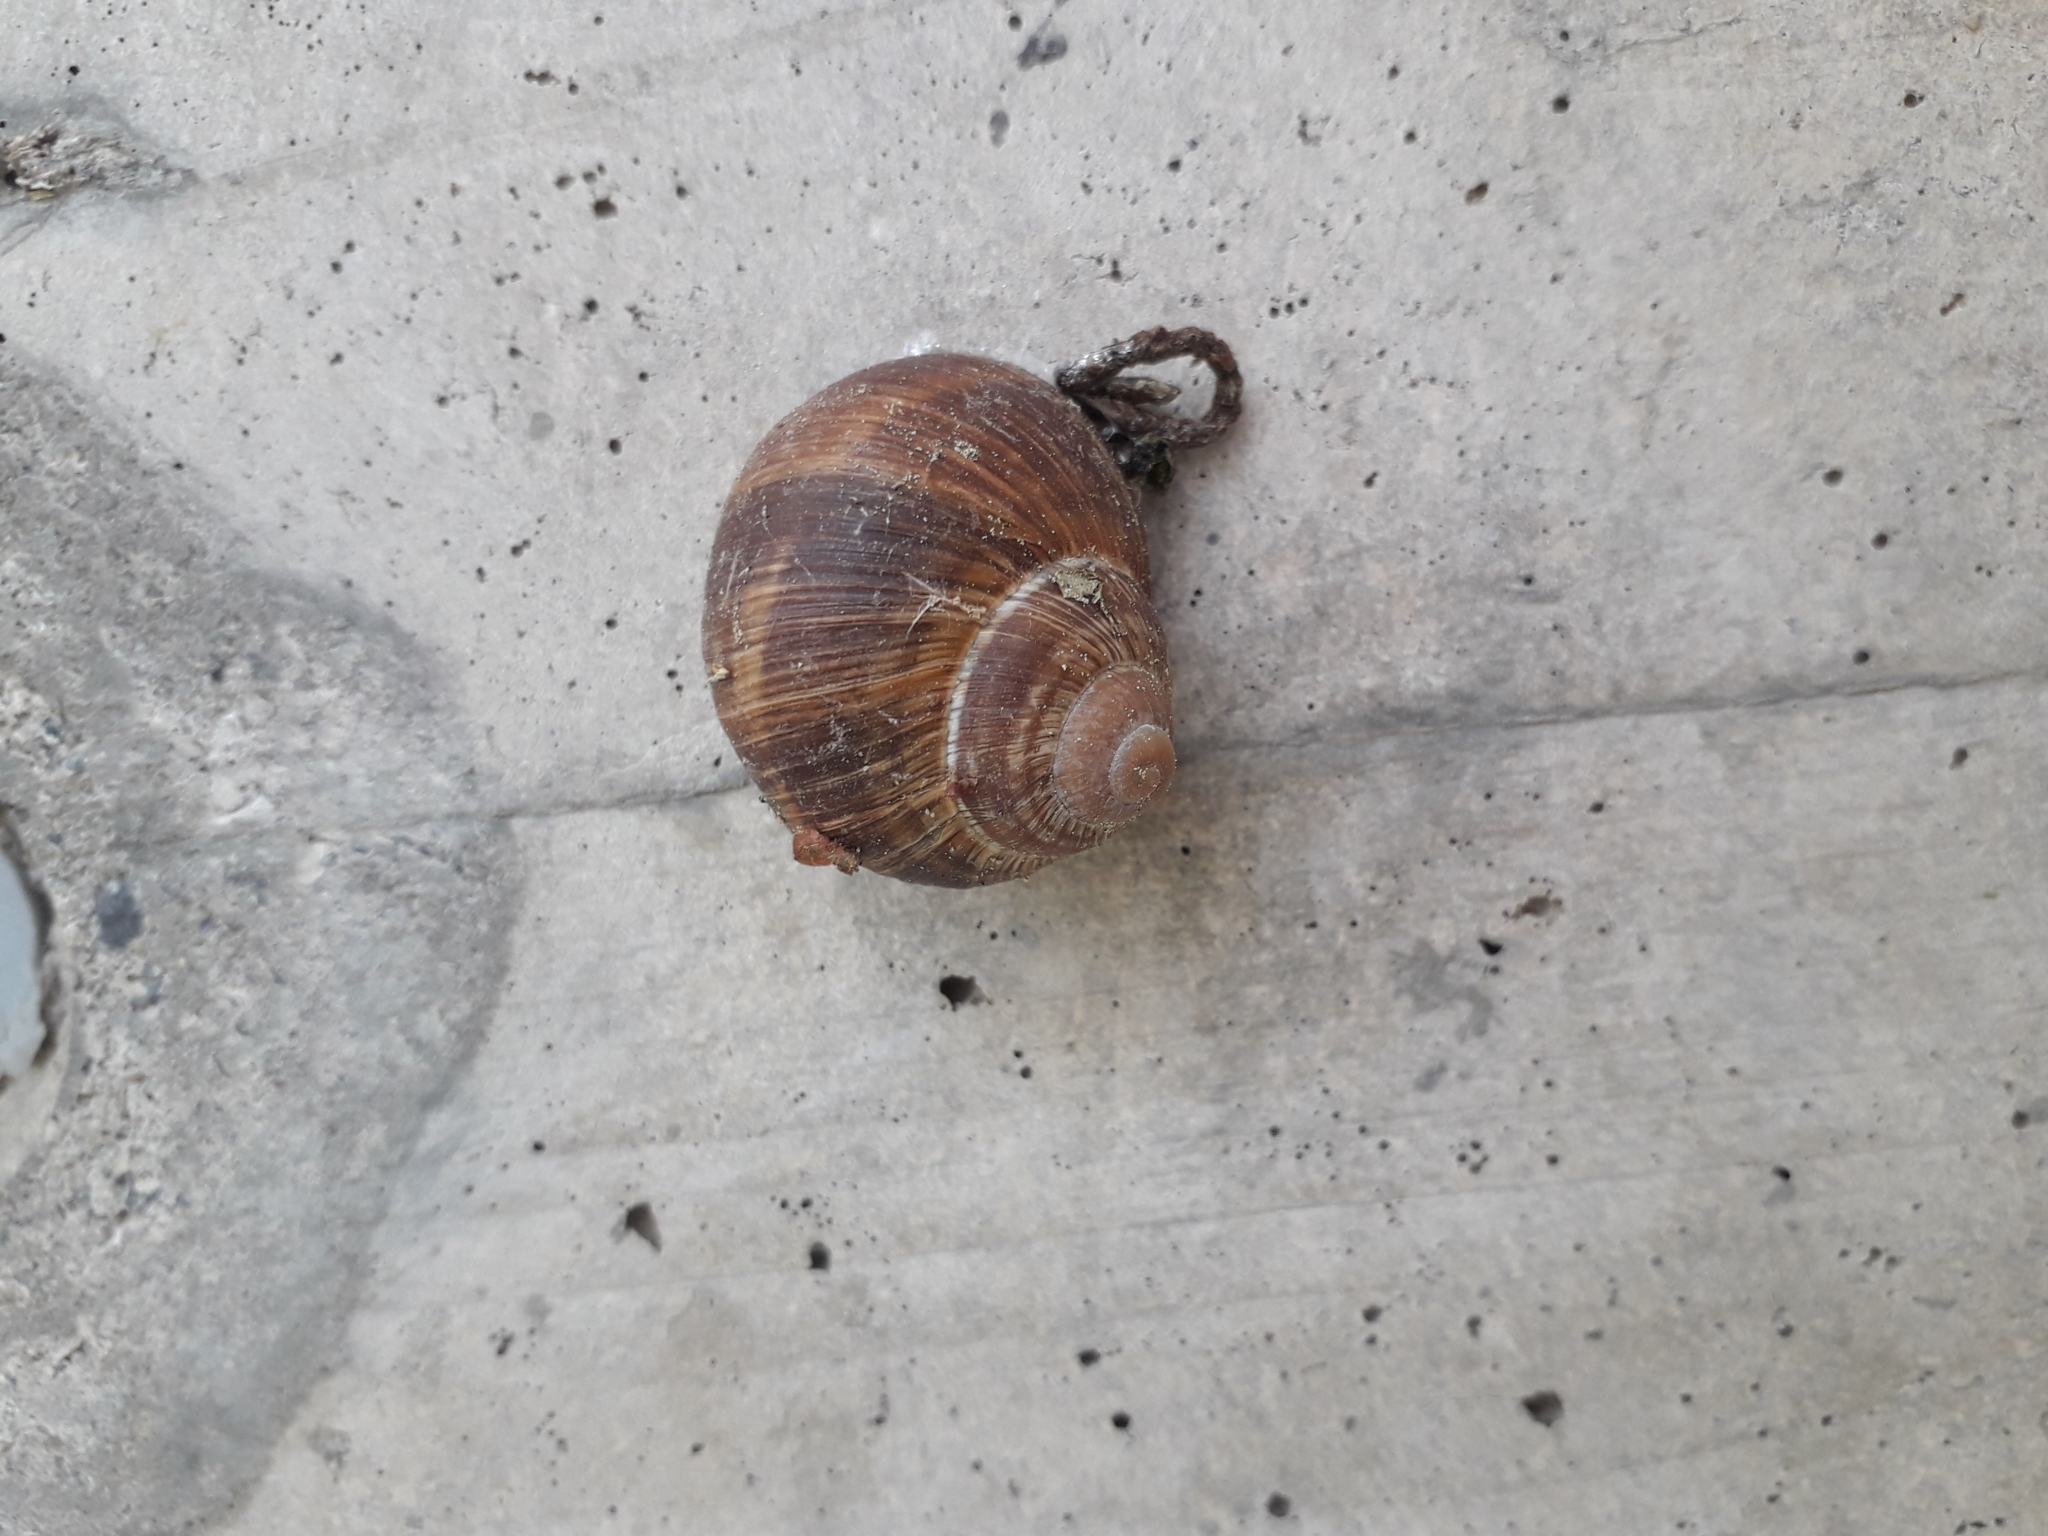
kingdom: Animalia
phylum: Mollusca
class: Gastropoda
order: Stylommatophora
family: Helicidae
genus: Helix
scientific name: Helix pomatia
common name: Roman snail
